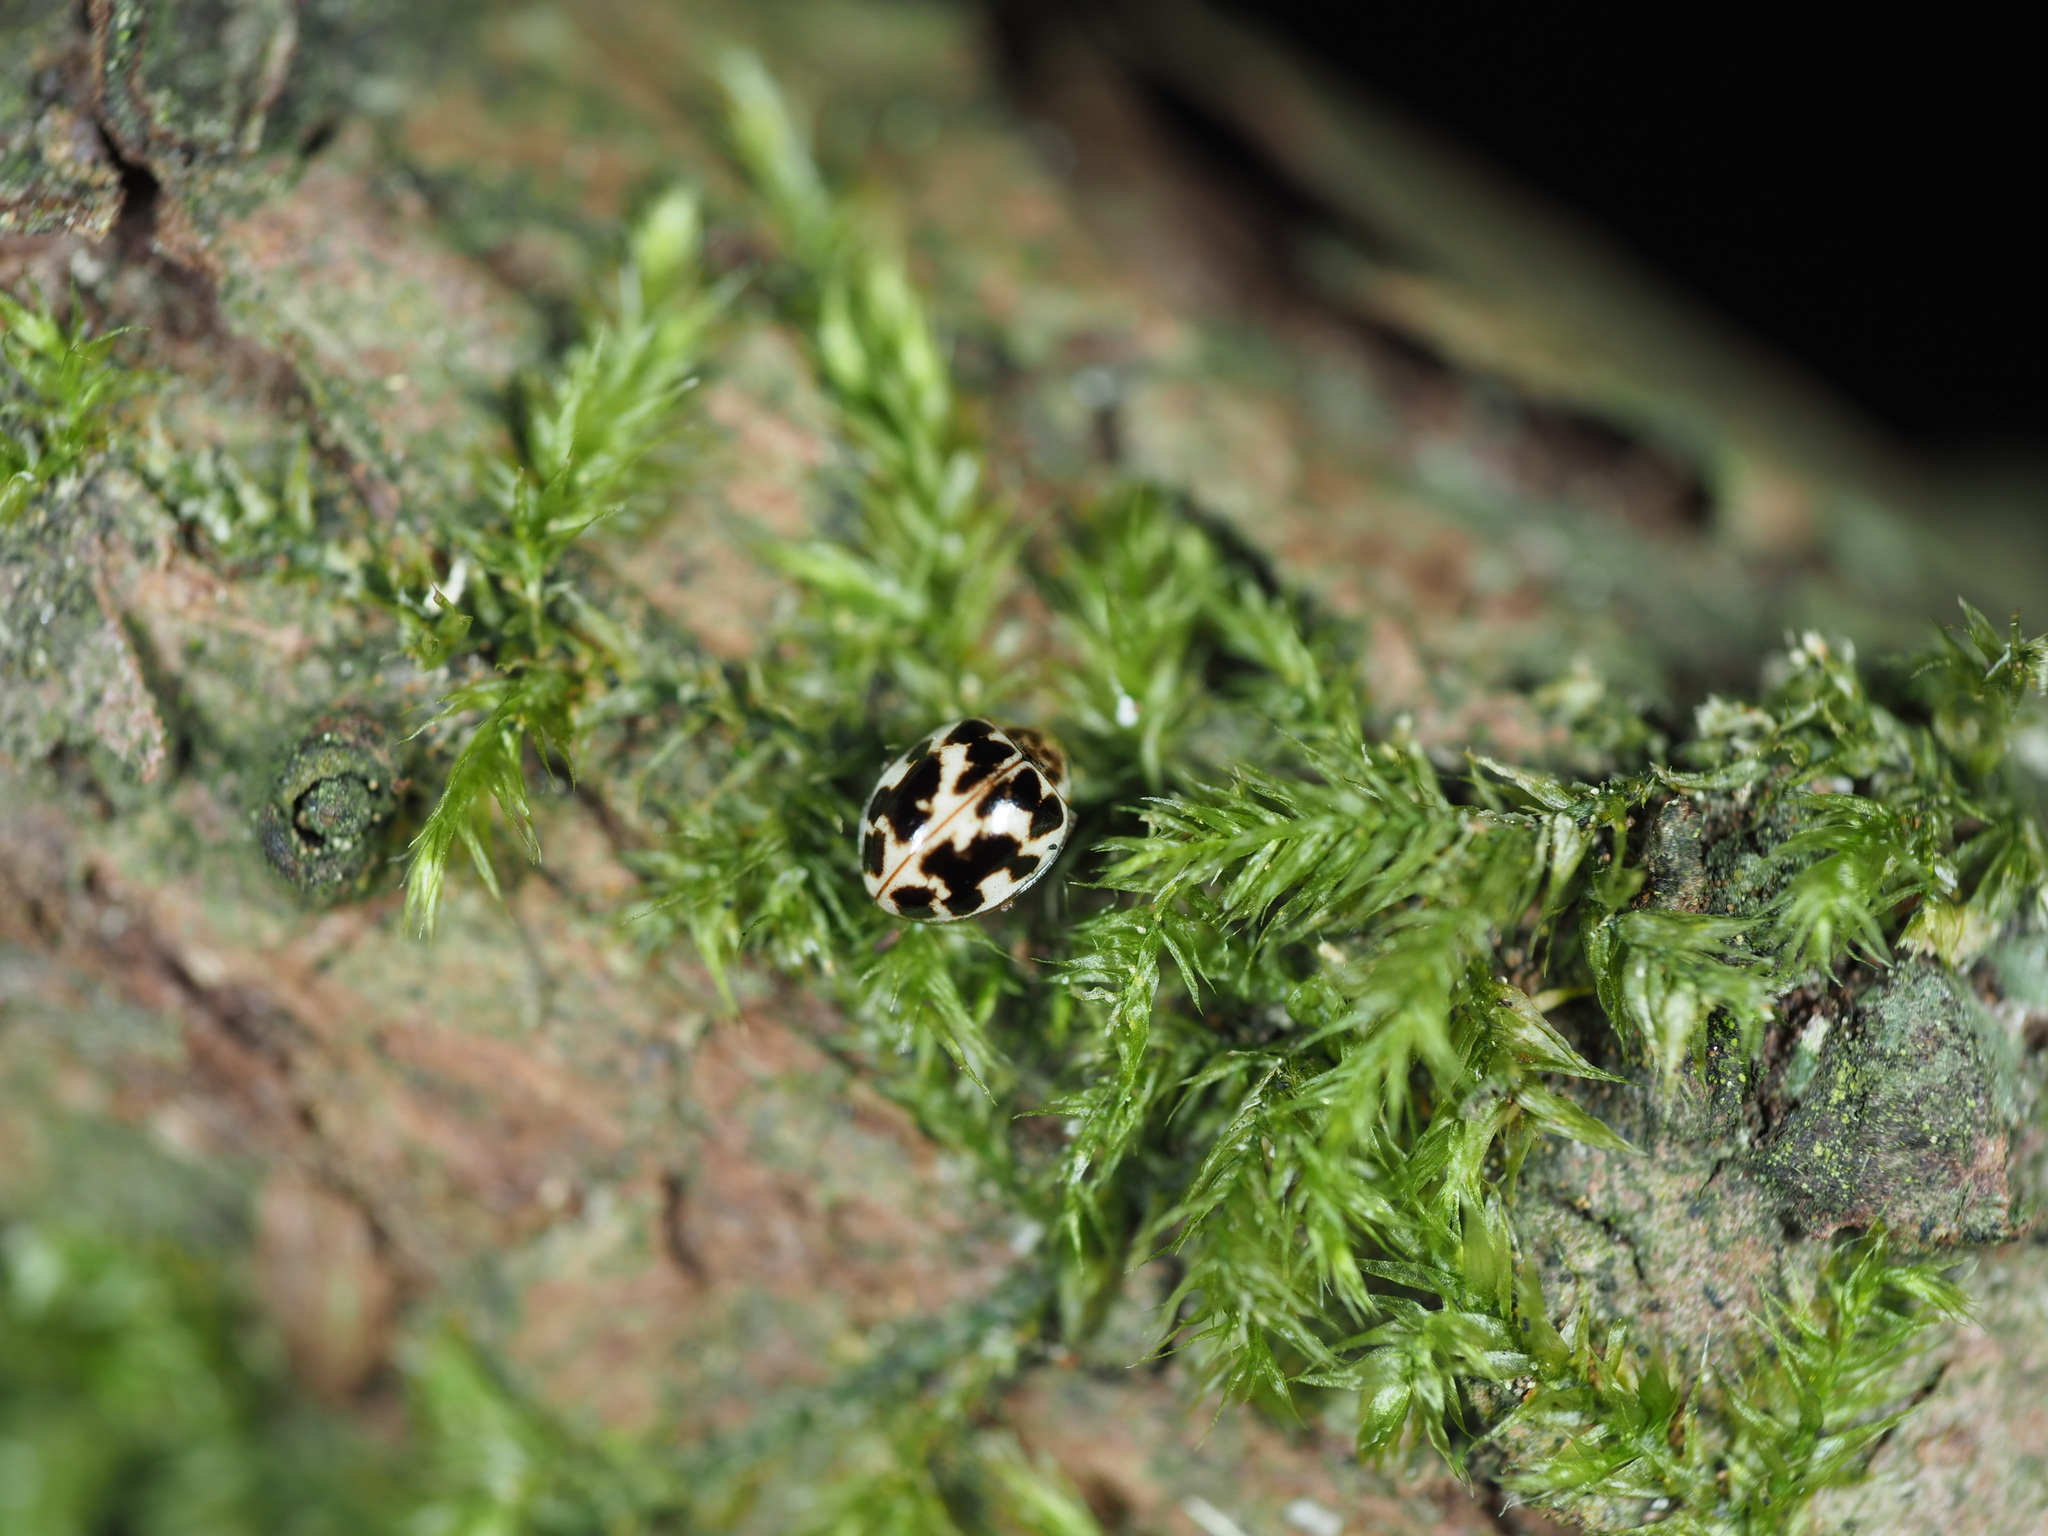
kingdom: Animalia
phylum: Arthropoda
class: Insecta
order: Coleoptera
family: Coccinellidae
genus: Psyllobora
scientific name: Psyllobora vigintimaculata
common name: Ladybird beetle
